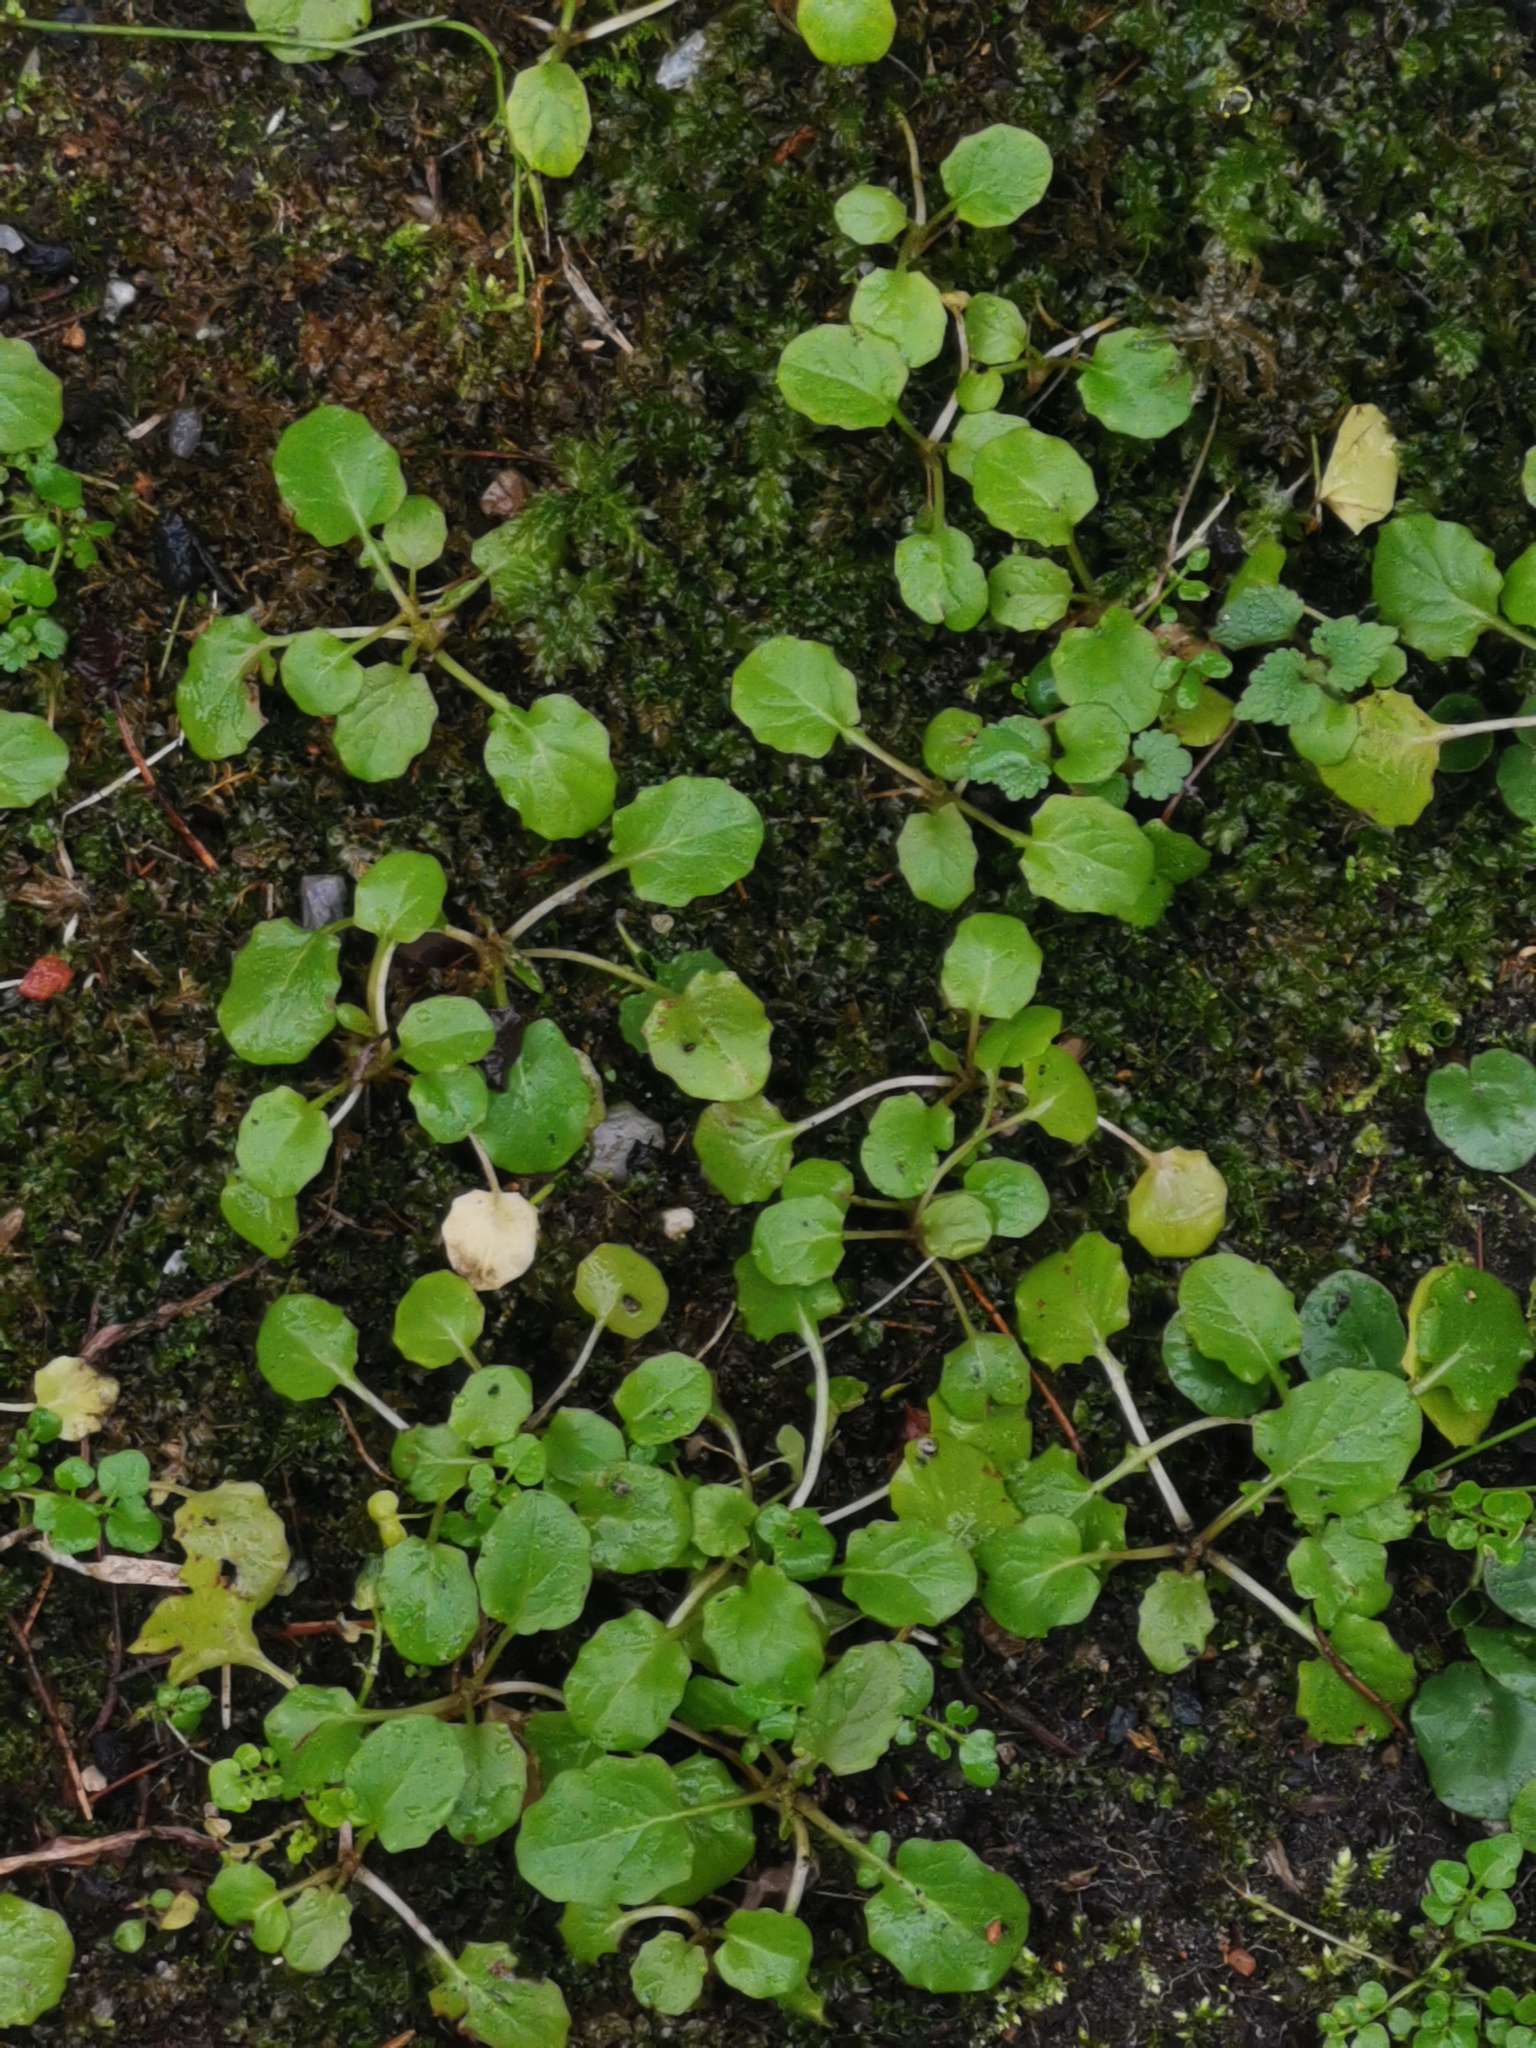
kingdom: Plantae
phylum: Tracheophyta
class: Magnoliopsida
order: Asterales
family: Asteraceae
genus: Lapsana
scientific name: Lapsana communis
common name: Nipplewort
